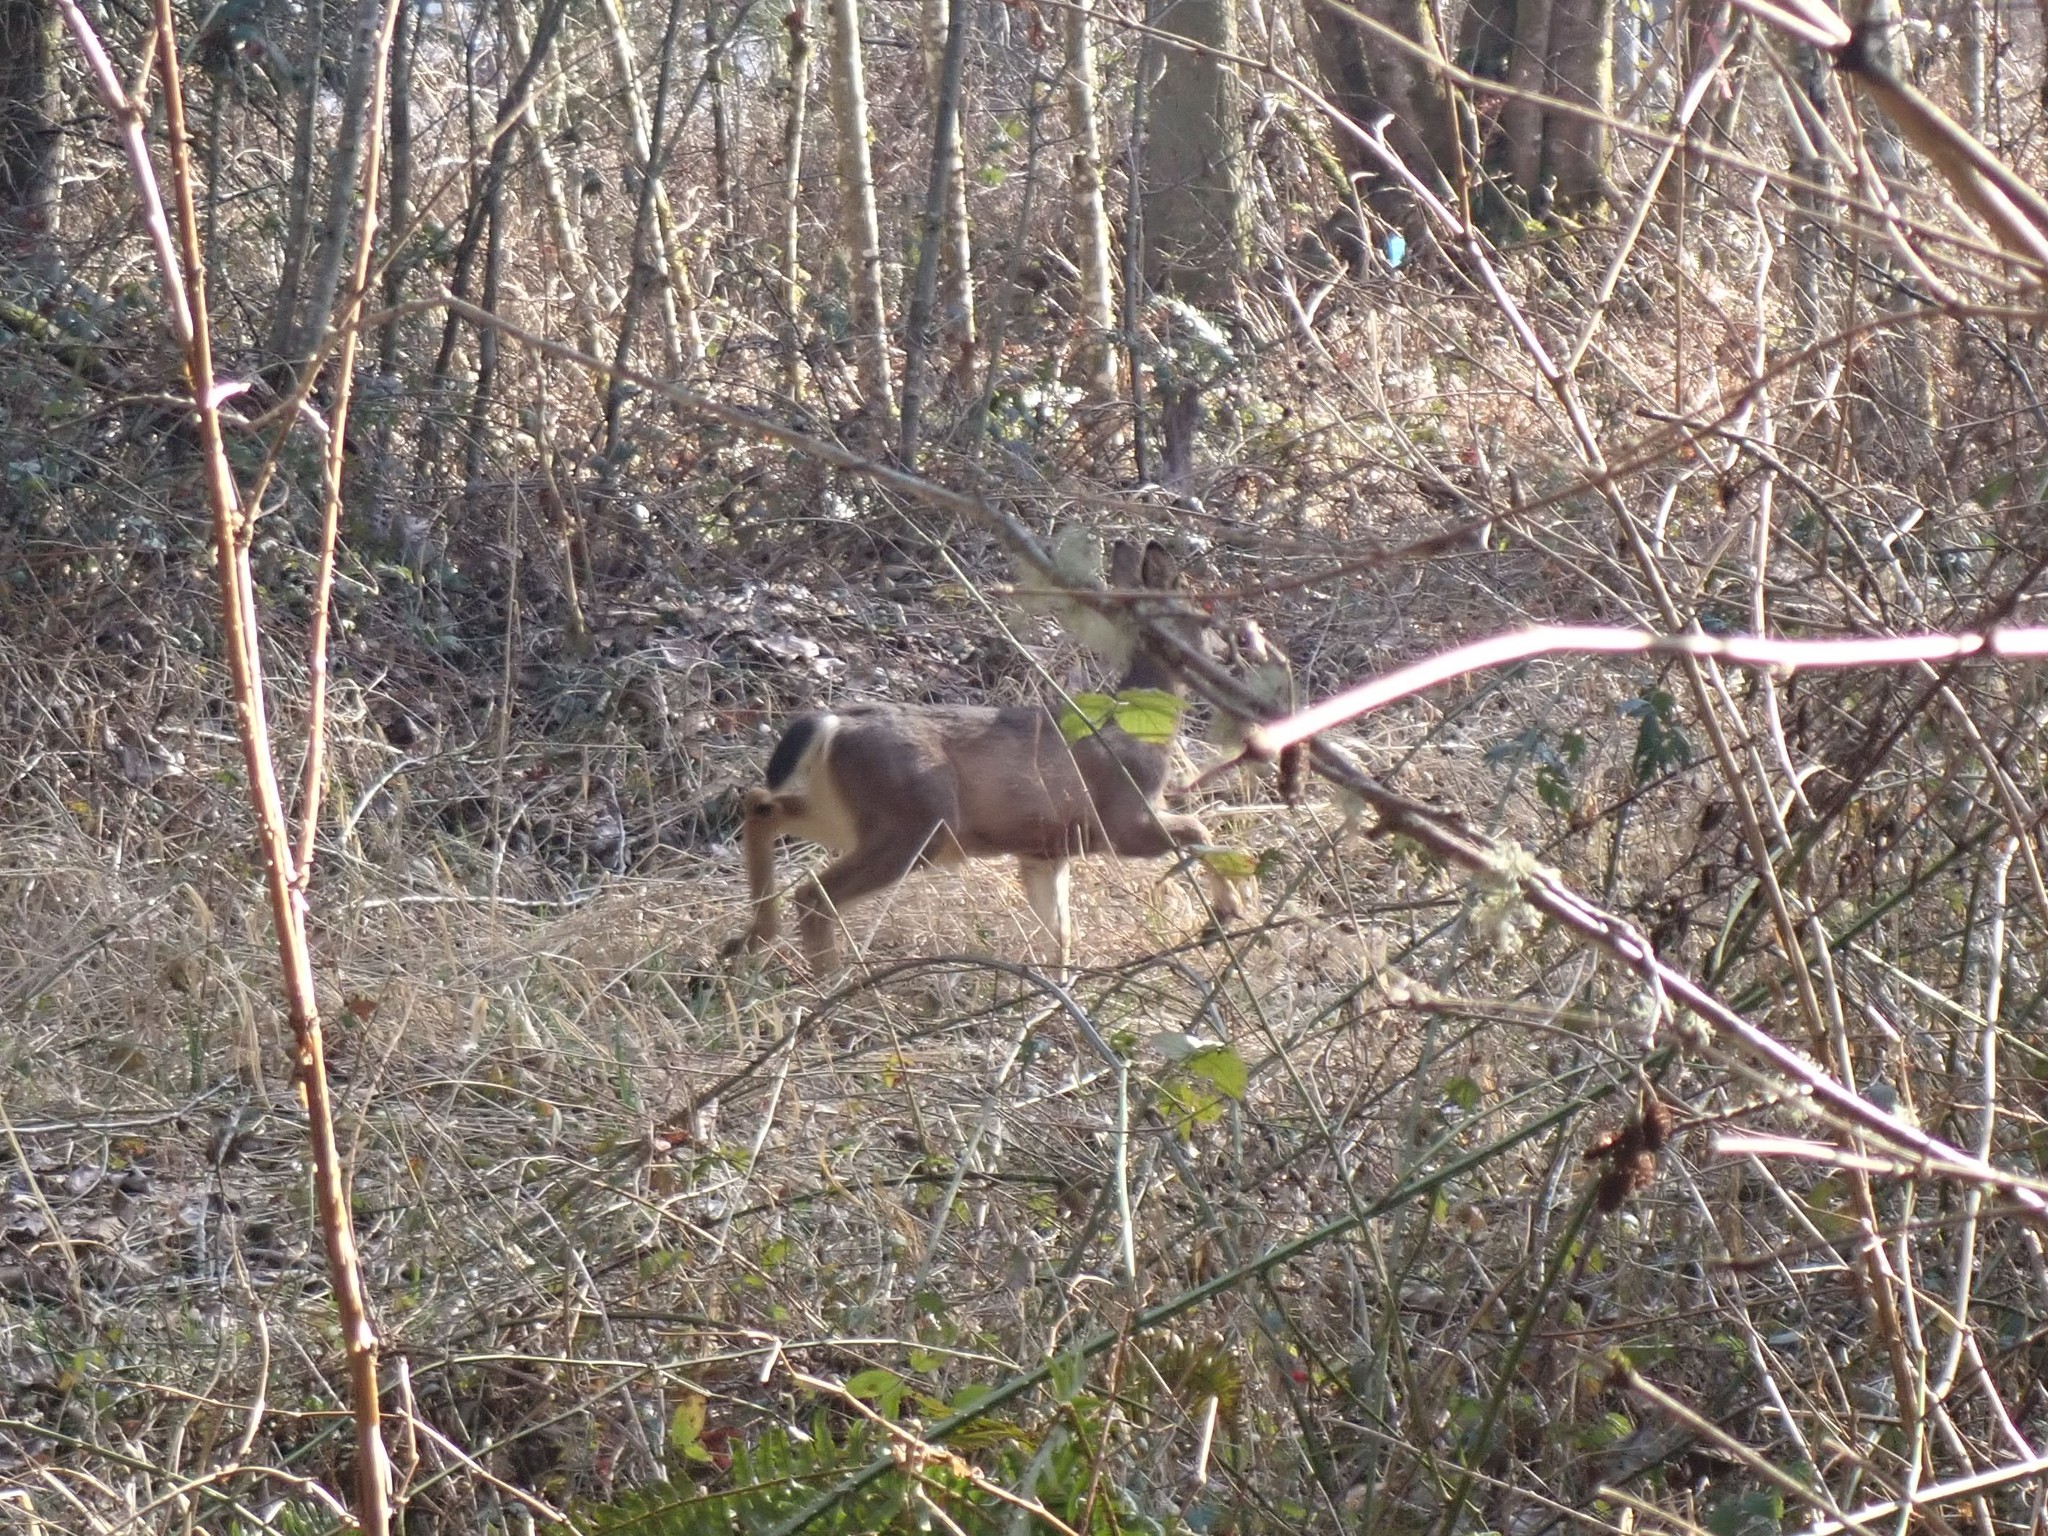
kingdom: Animalia
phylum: Chordata
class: Mammalia
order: Artiodactyla
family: Cervidae
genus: Odocoileus
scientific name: Odocoileus hemionus
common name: Mule deer
